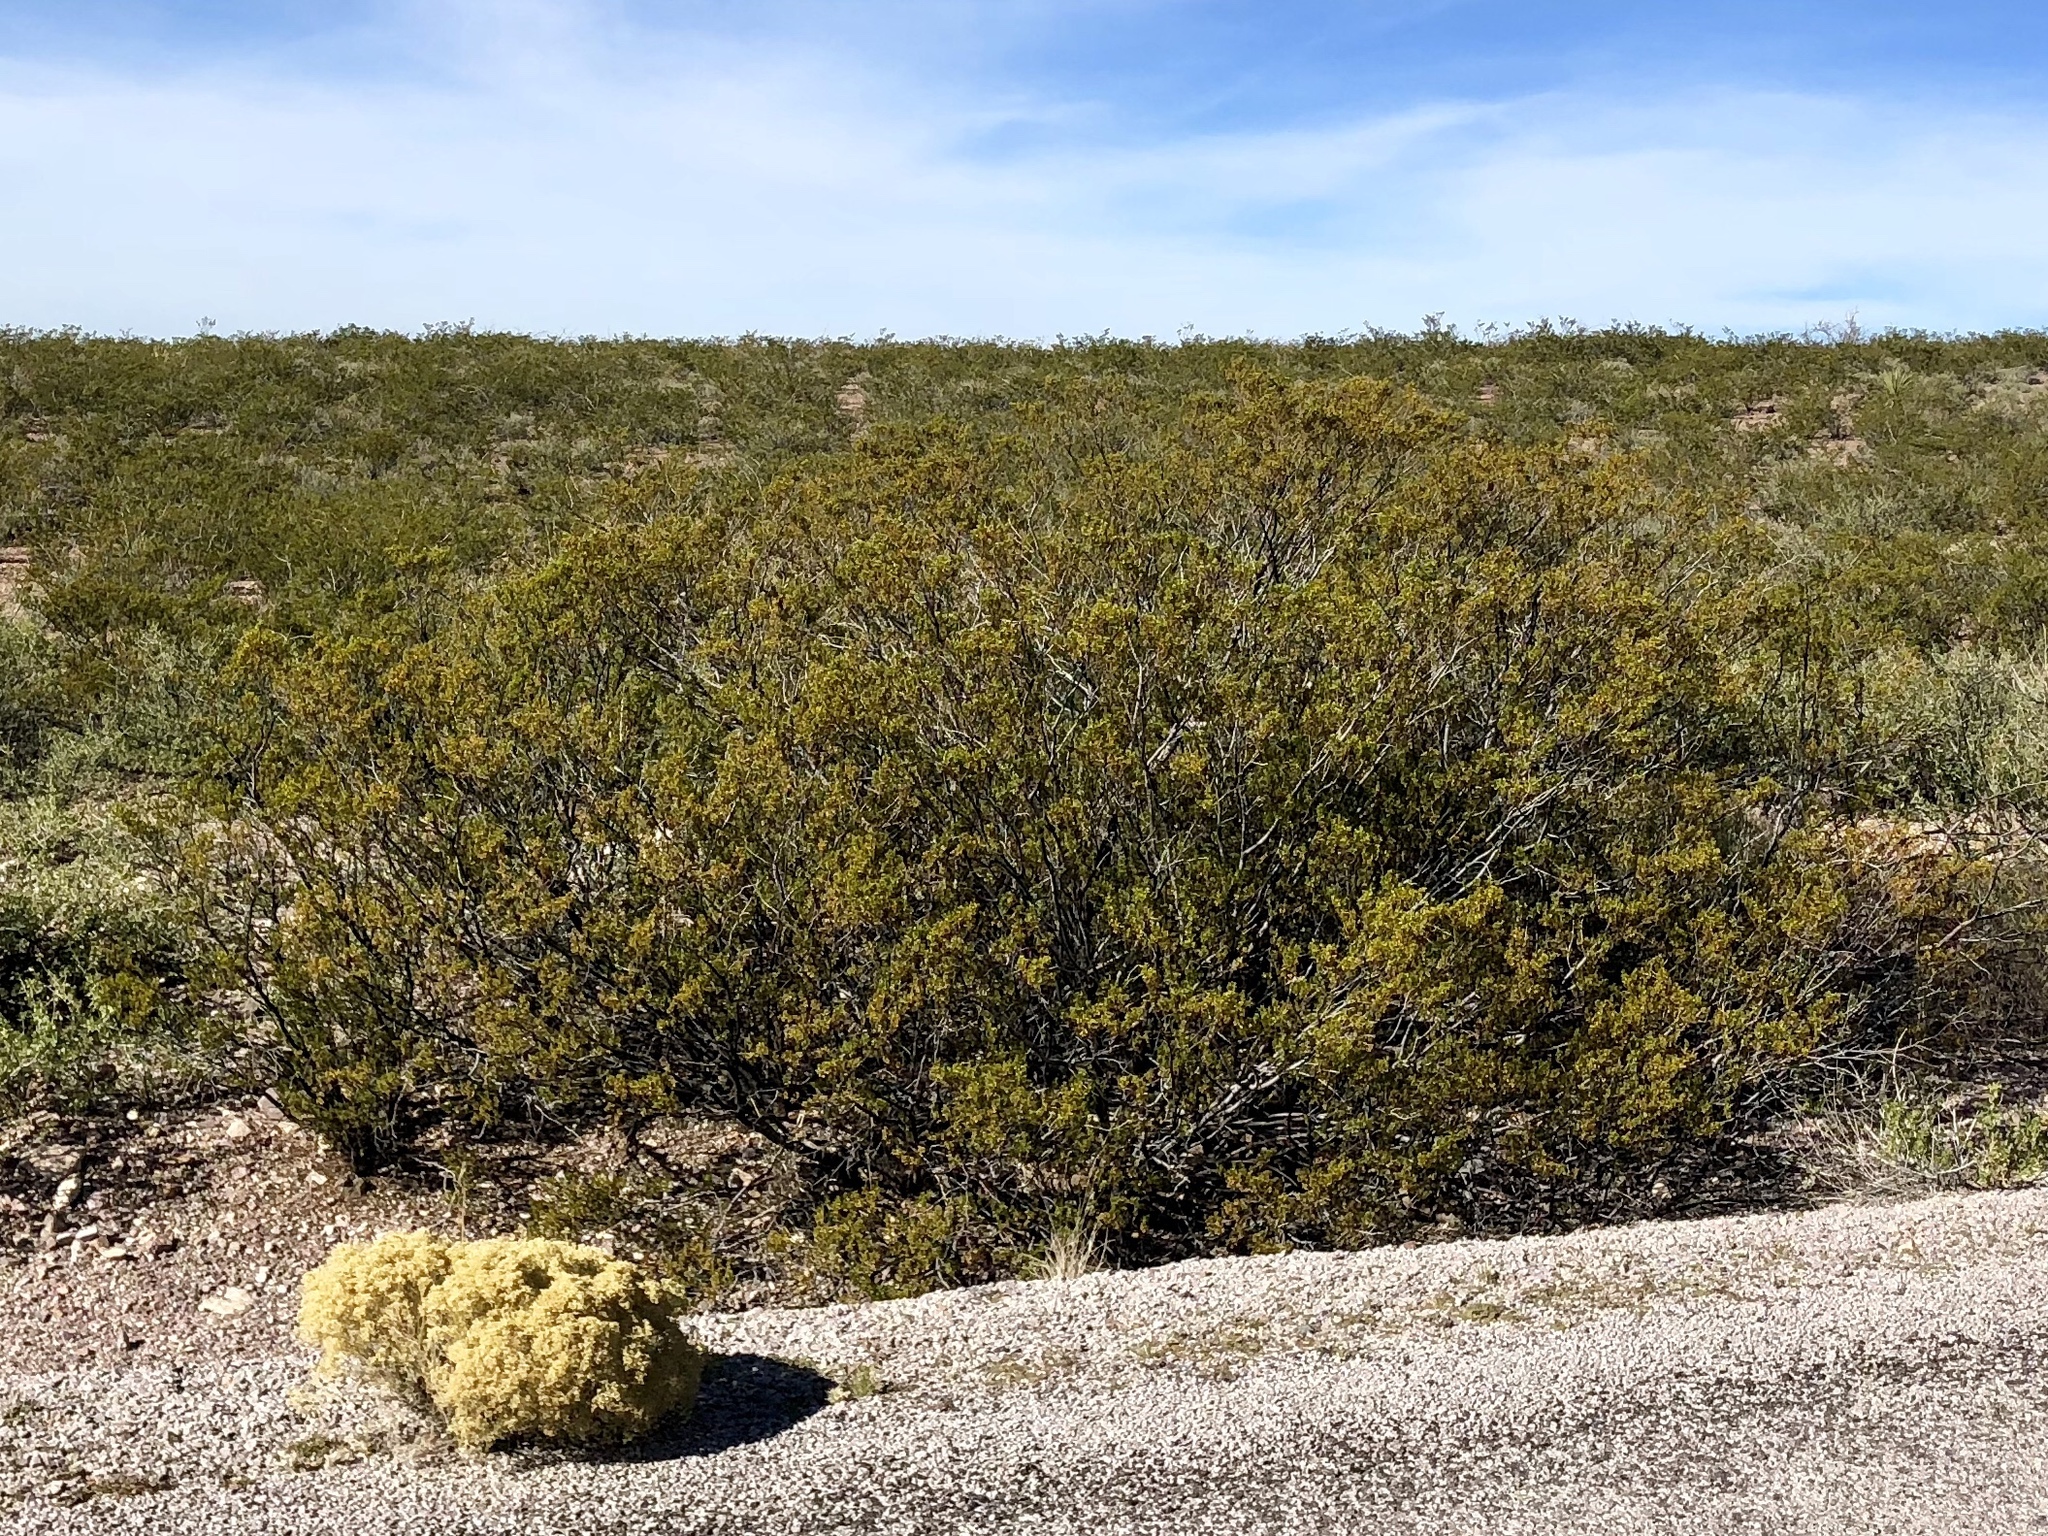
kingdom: Plantae
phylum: Tracheophyta
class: Magnoliopsida
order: Zygophyllales
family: Zygophyllaceae
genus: Larrea
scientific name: Larrea tridentata
